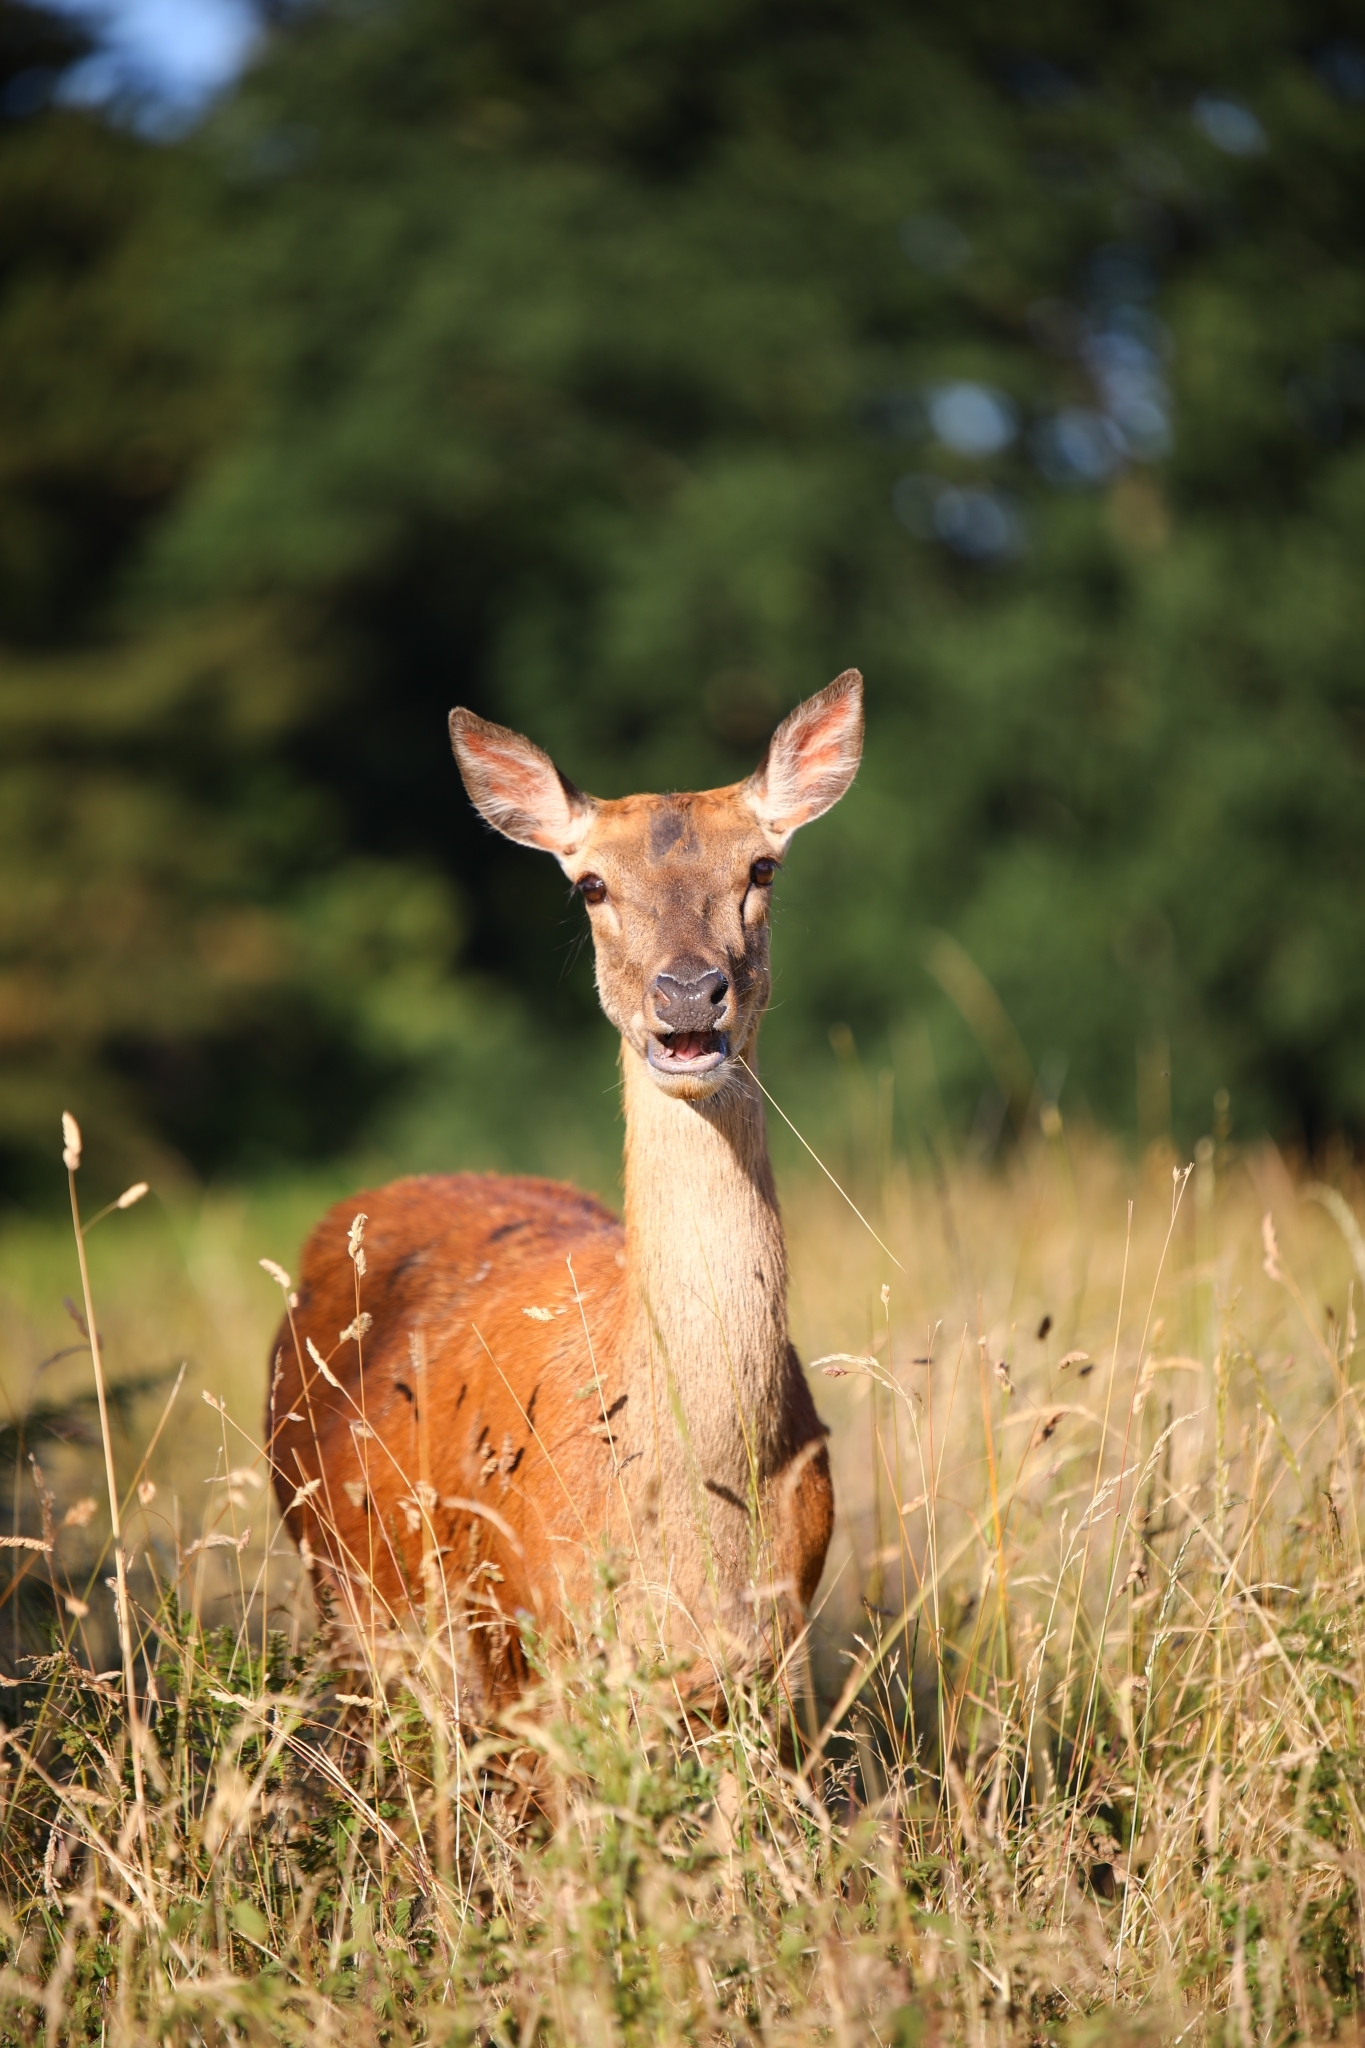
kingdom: Animalia
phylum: Chordata
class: Mammalia
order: Artiodactyla
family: Cervidae
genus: Cervus
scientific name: Cervus elaphus
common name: Red deer
